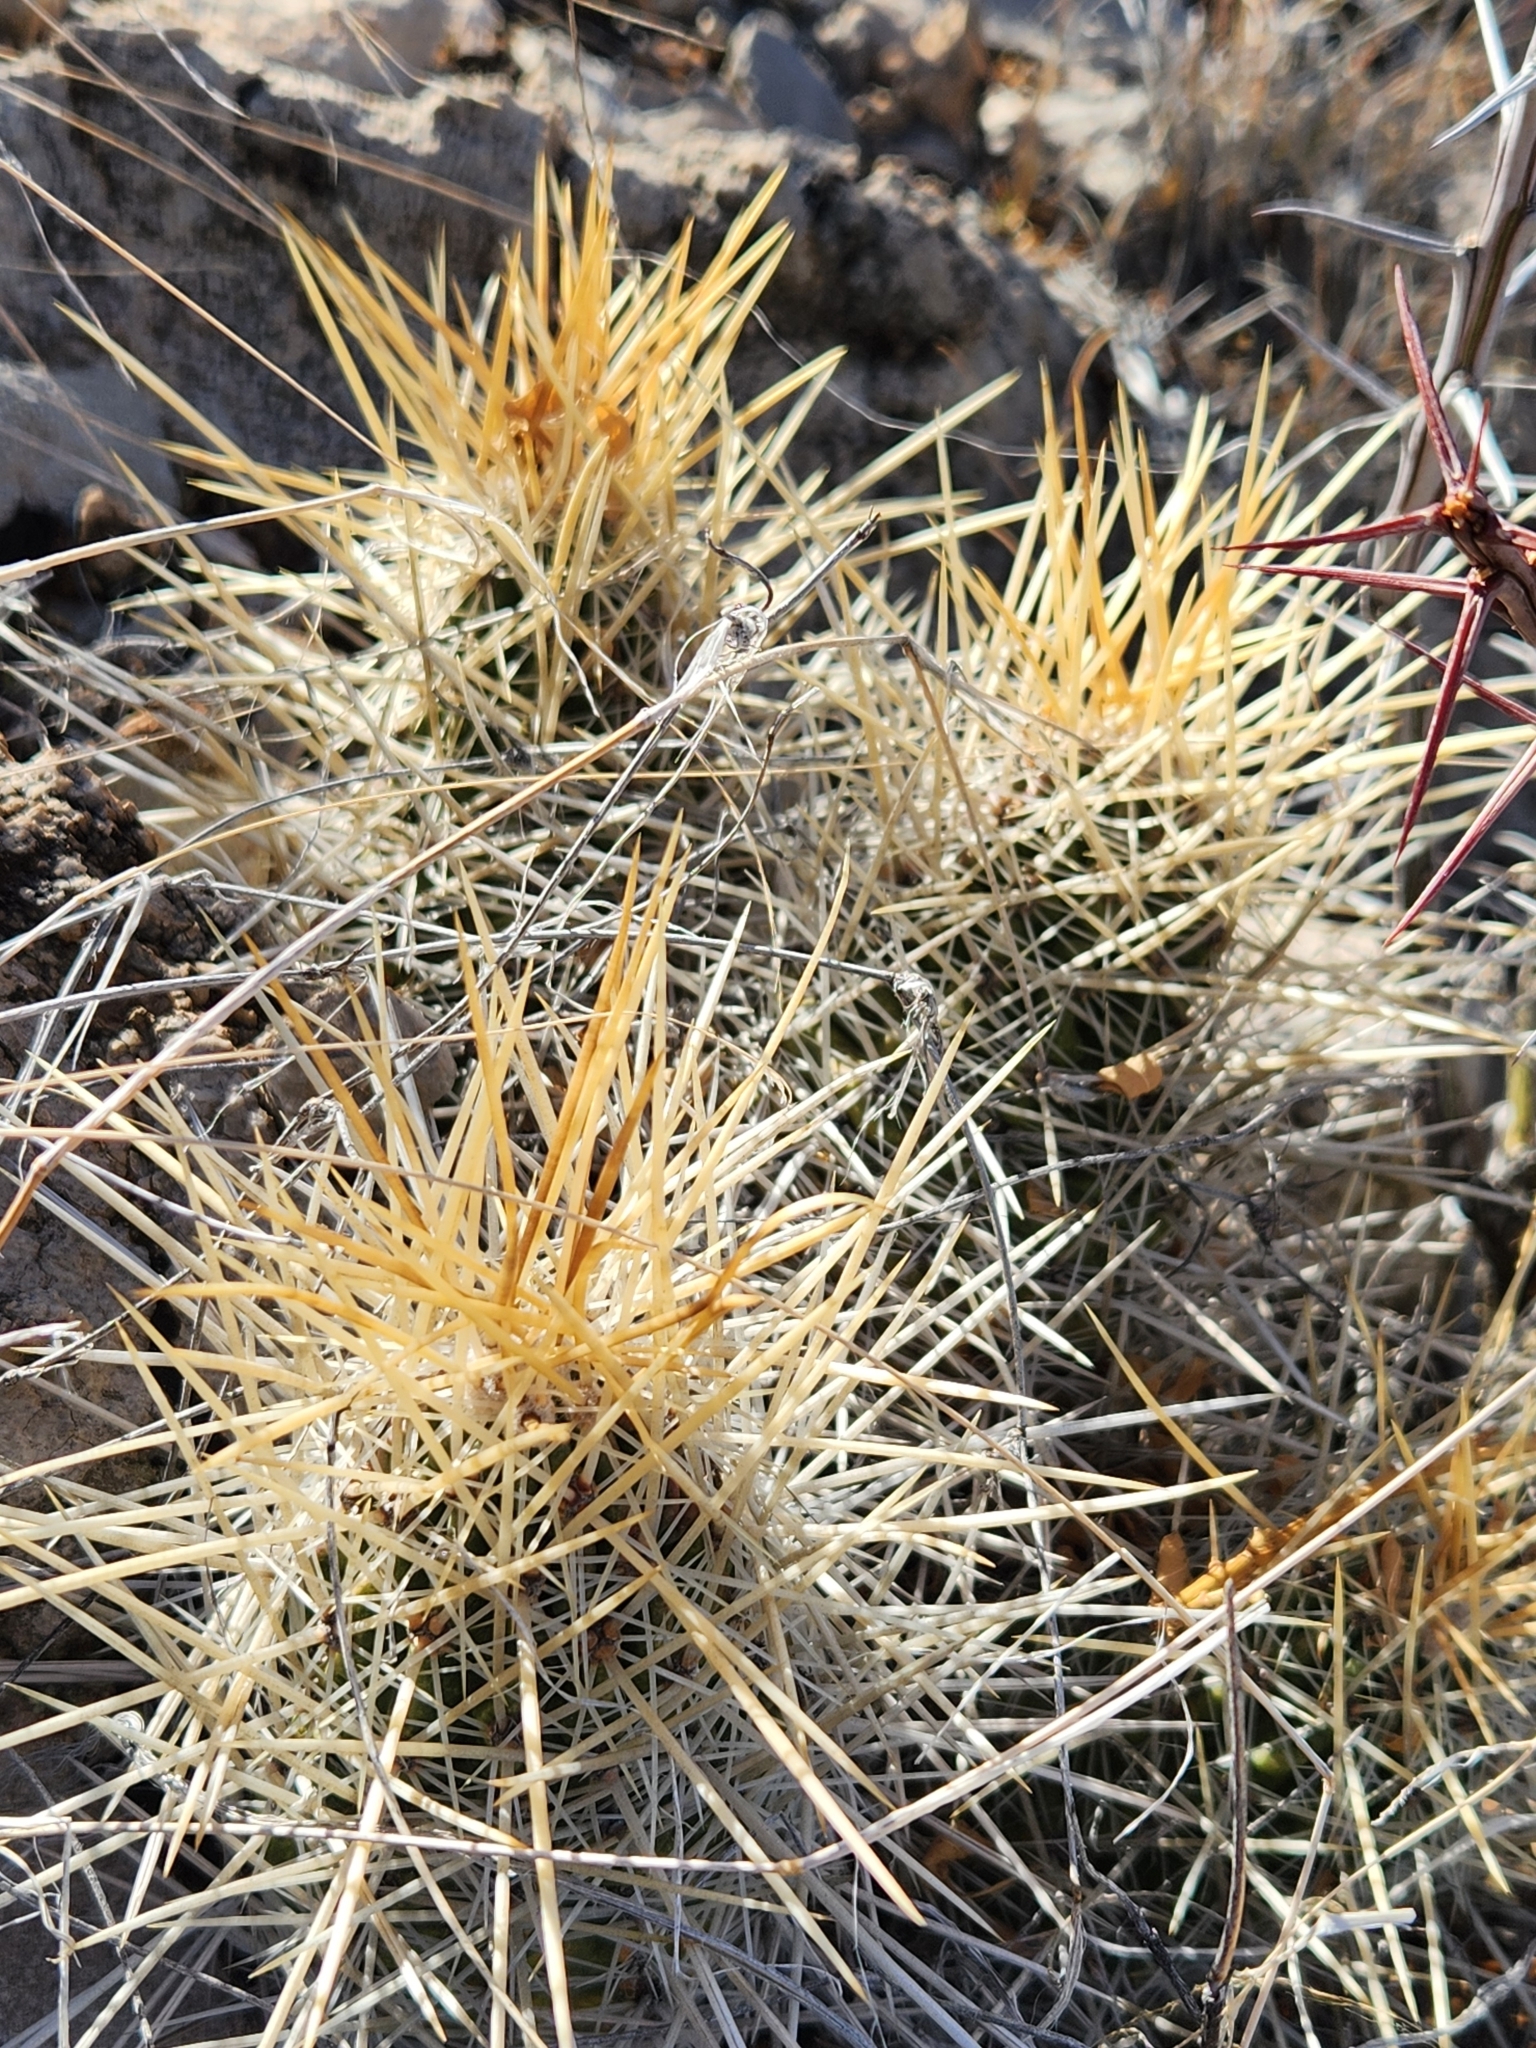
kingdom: Plantae
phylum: Tracheophyta
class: Magnoliopsida
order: Caryophyllales
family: Cactaceae
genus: Echinocereus
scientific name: Echinocereus stramineus
